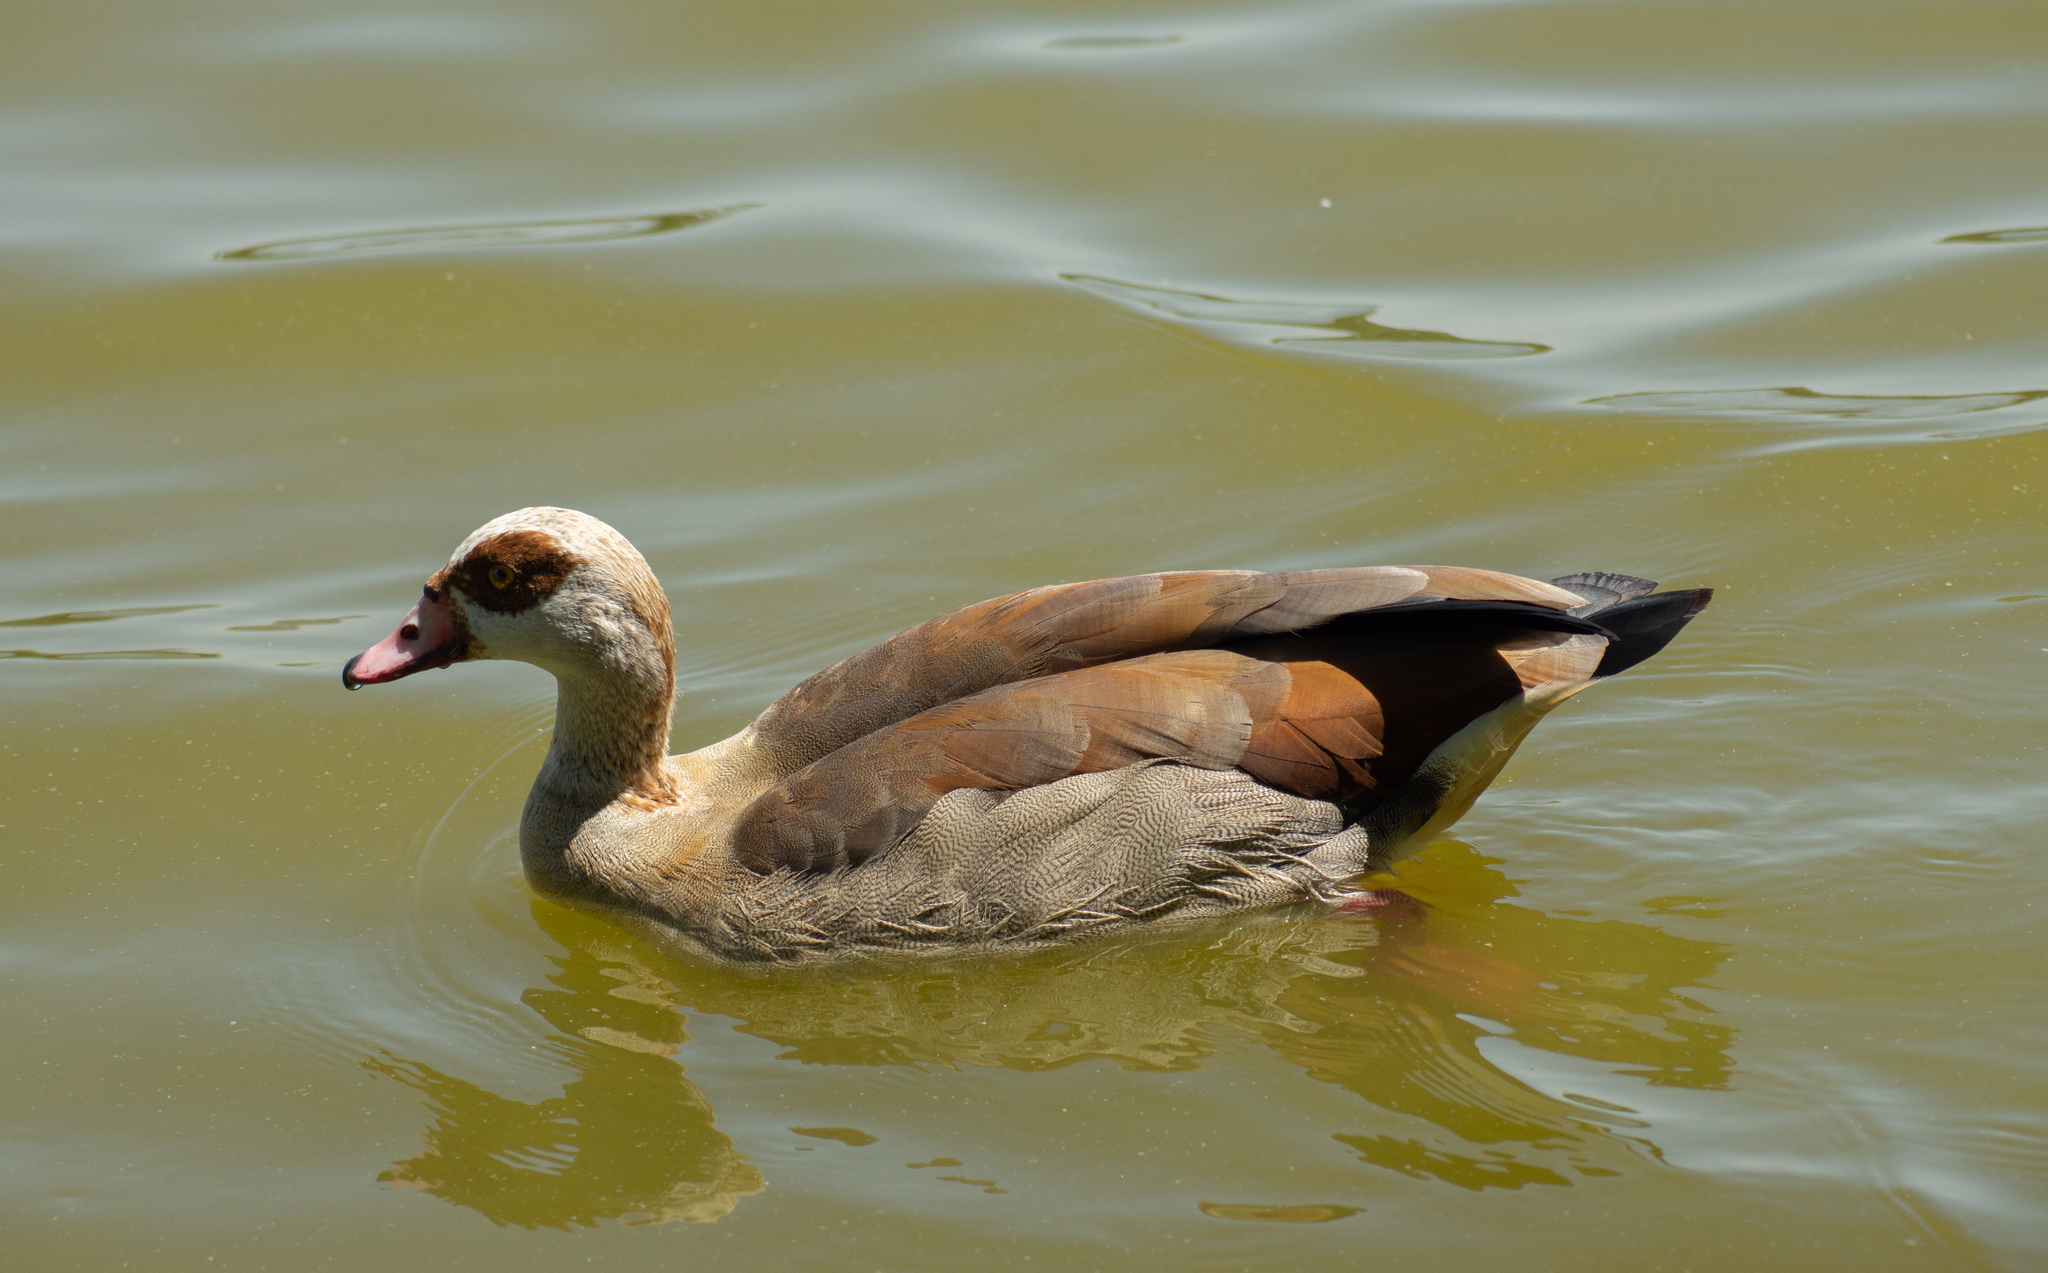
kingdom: Animalia
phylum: Chordata
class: Aves
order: Anseriformes
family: Anatidae
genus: Alopochen
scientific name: Alopochen aegyptiaca
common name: Egyptian goose
